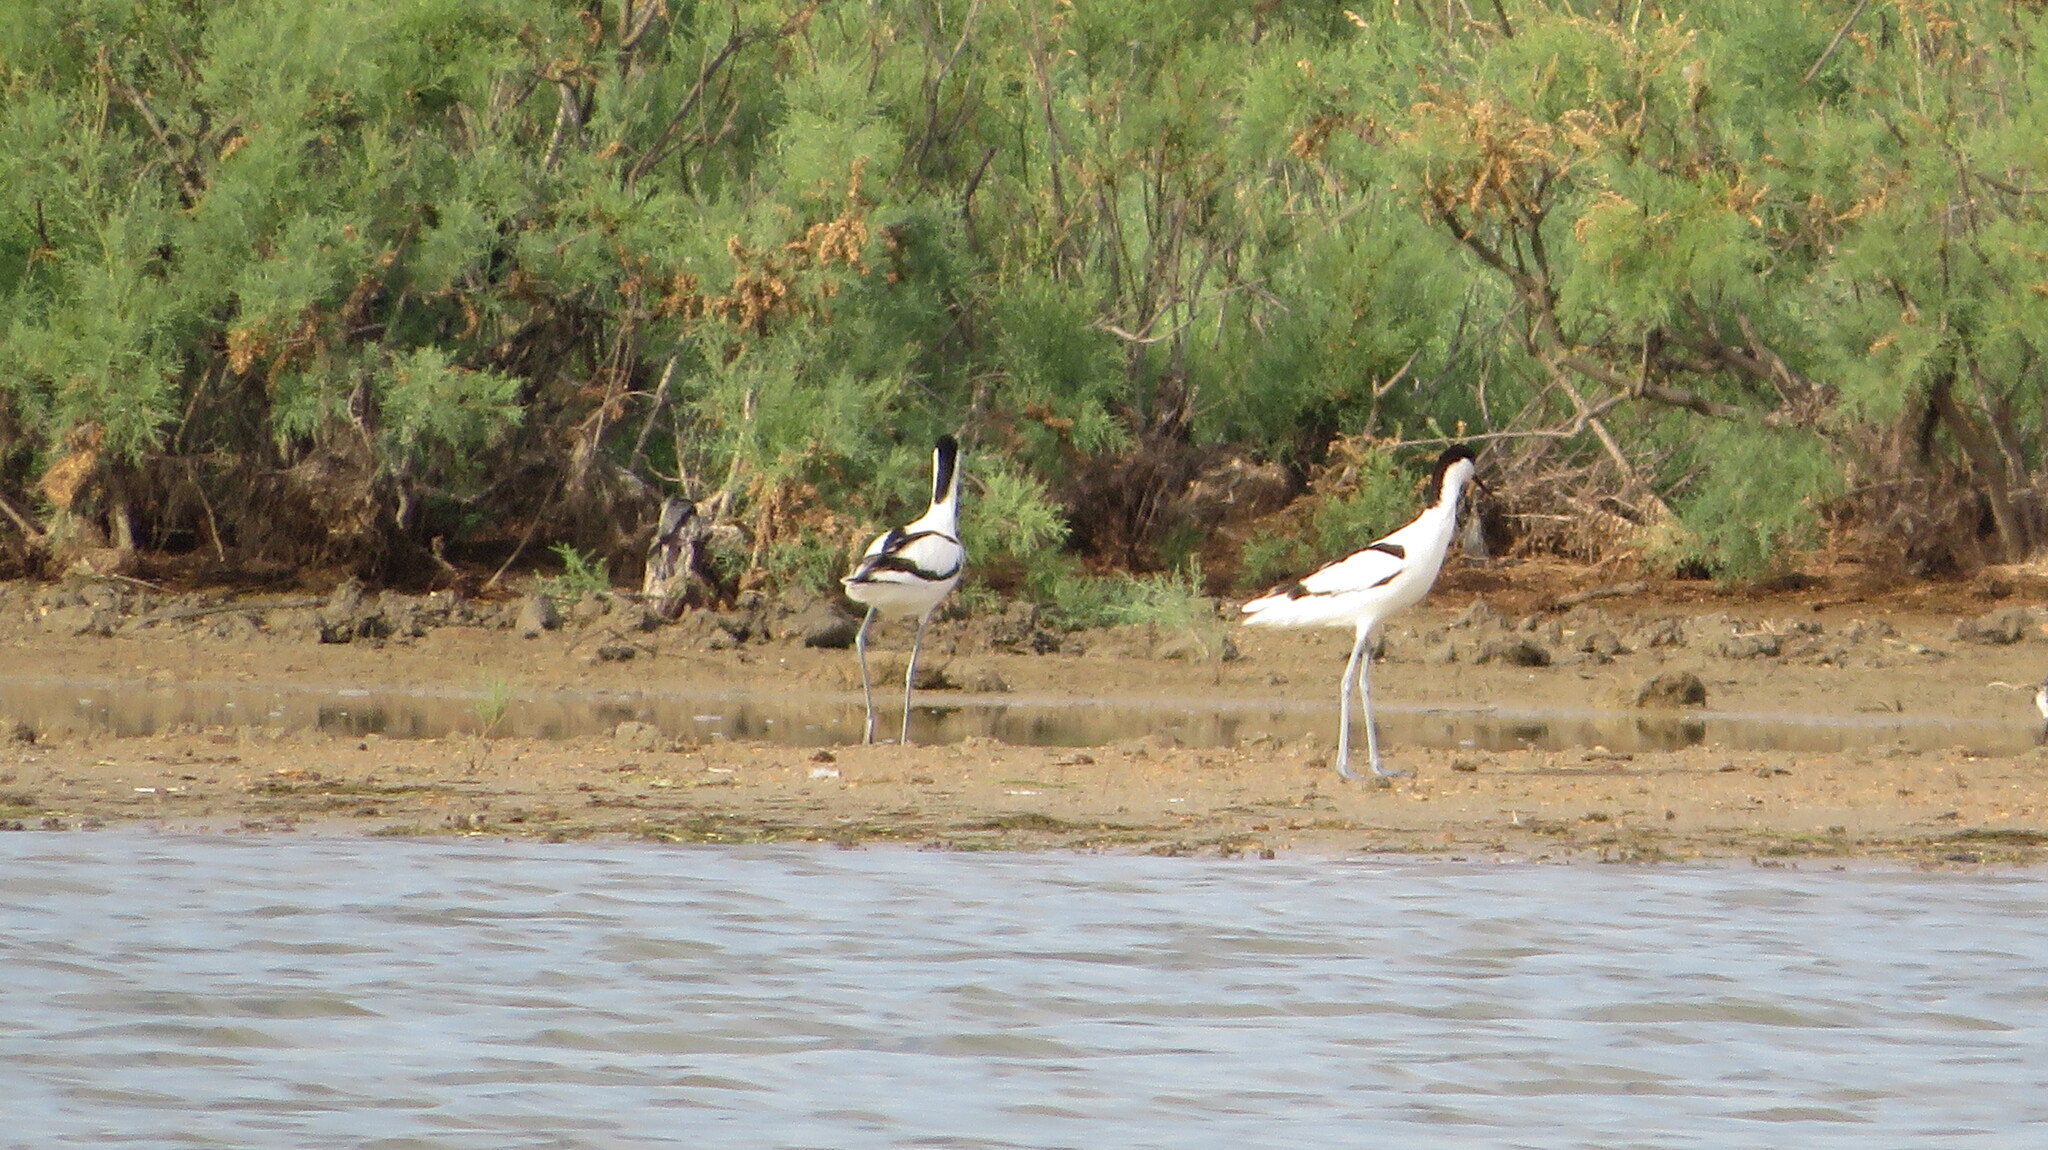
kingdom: Animalia
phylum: Chordata
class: Aves
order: Charadriiformes
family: Recurvirostridae
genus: Recurvirostra
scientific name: Recurvirostra avosetta
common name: Pied avocet
